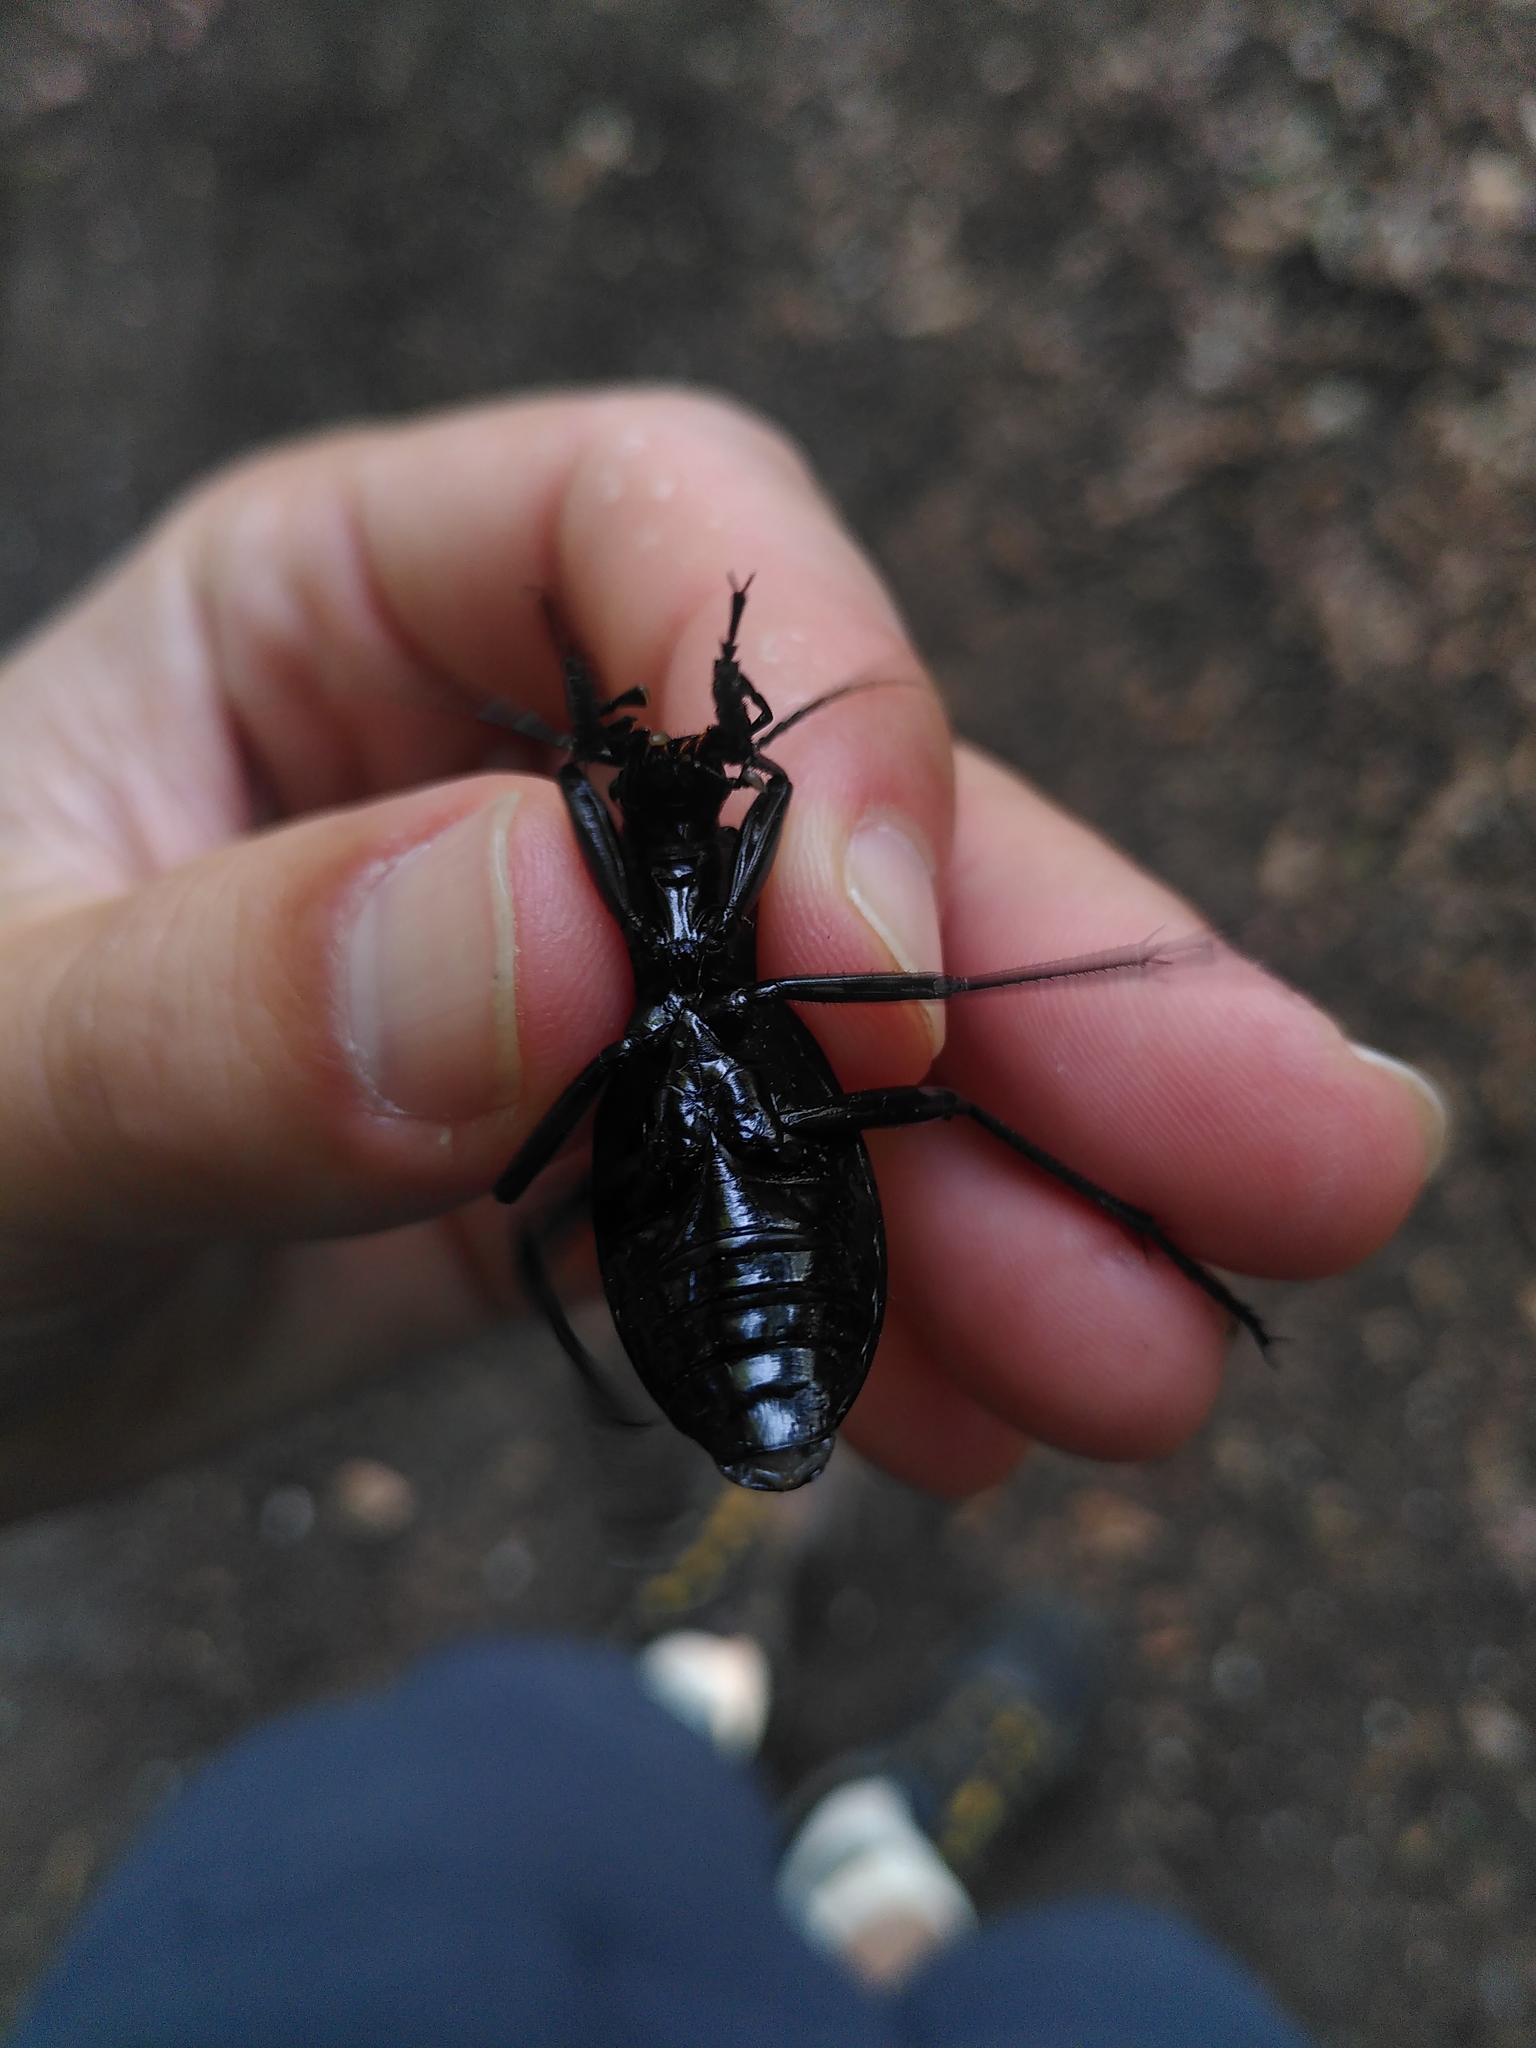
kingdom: Animalia
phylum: Arthropoda
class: Insecta
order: Coleoptera
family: Carabidae
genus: Carabus
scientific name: Carabus caelatus
